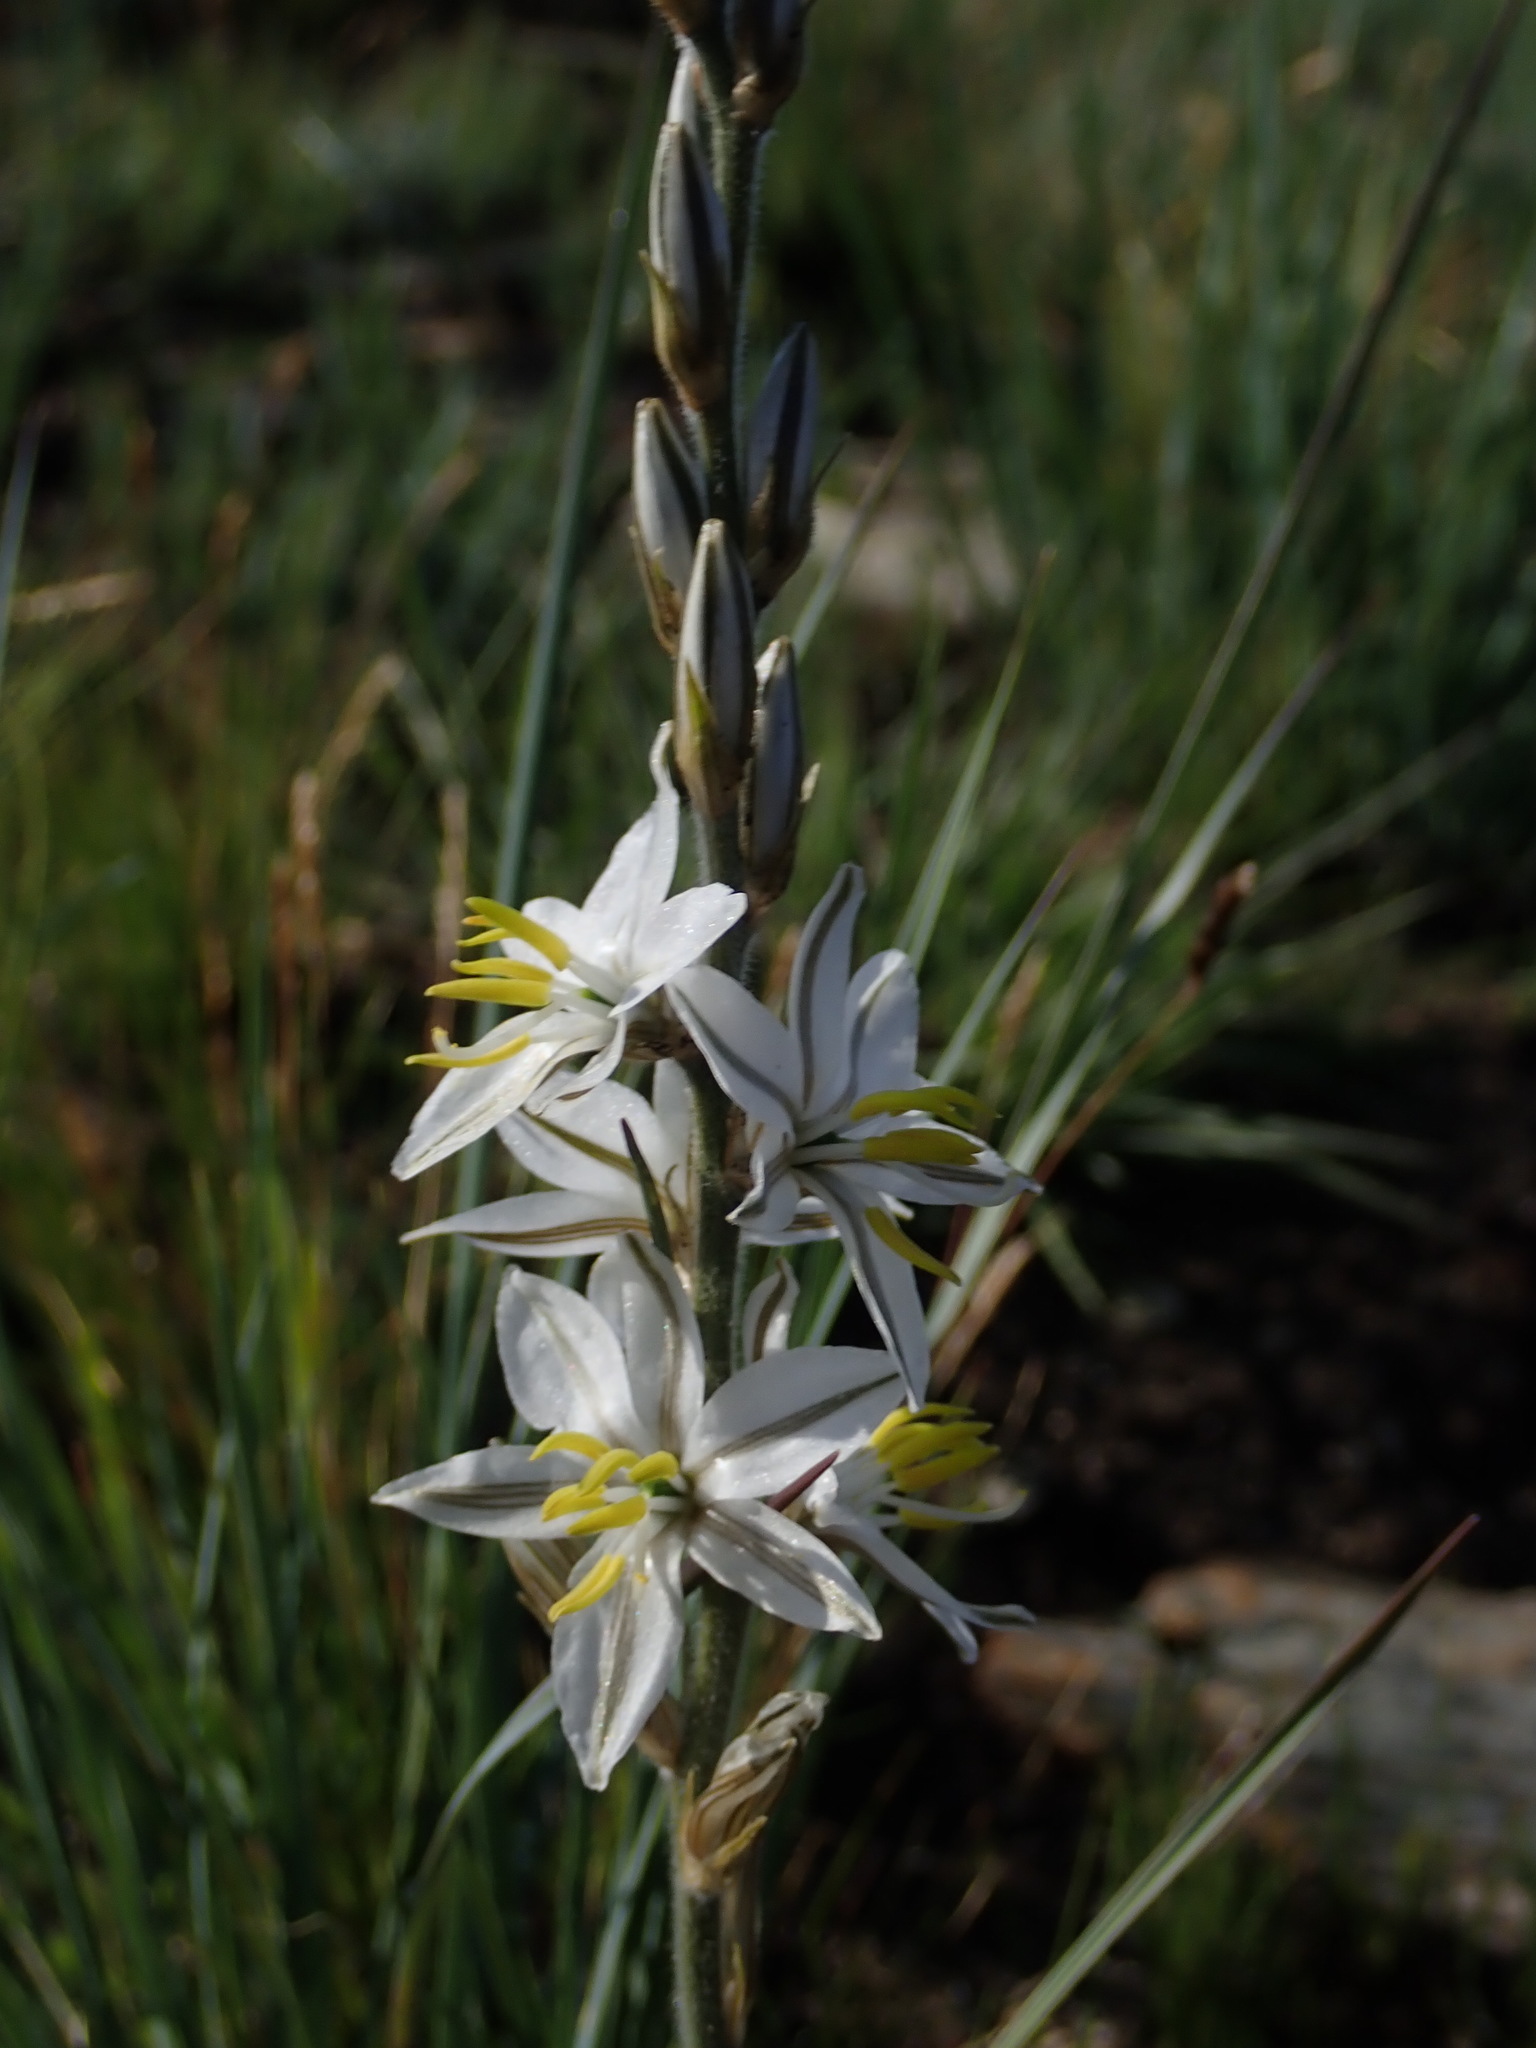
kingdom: Plantae
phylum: Tracheophyta
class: Liliopsida
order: Asparagales
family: Asparagaceae
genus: Chlorophytum
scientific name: Chlorophytum transvaalense
